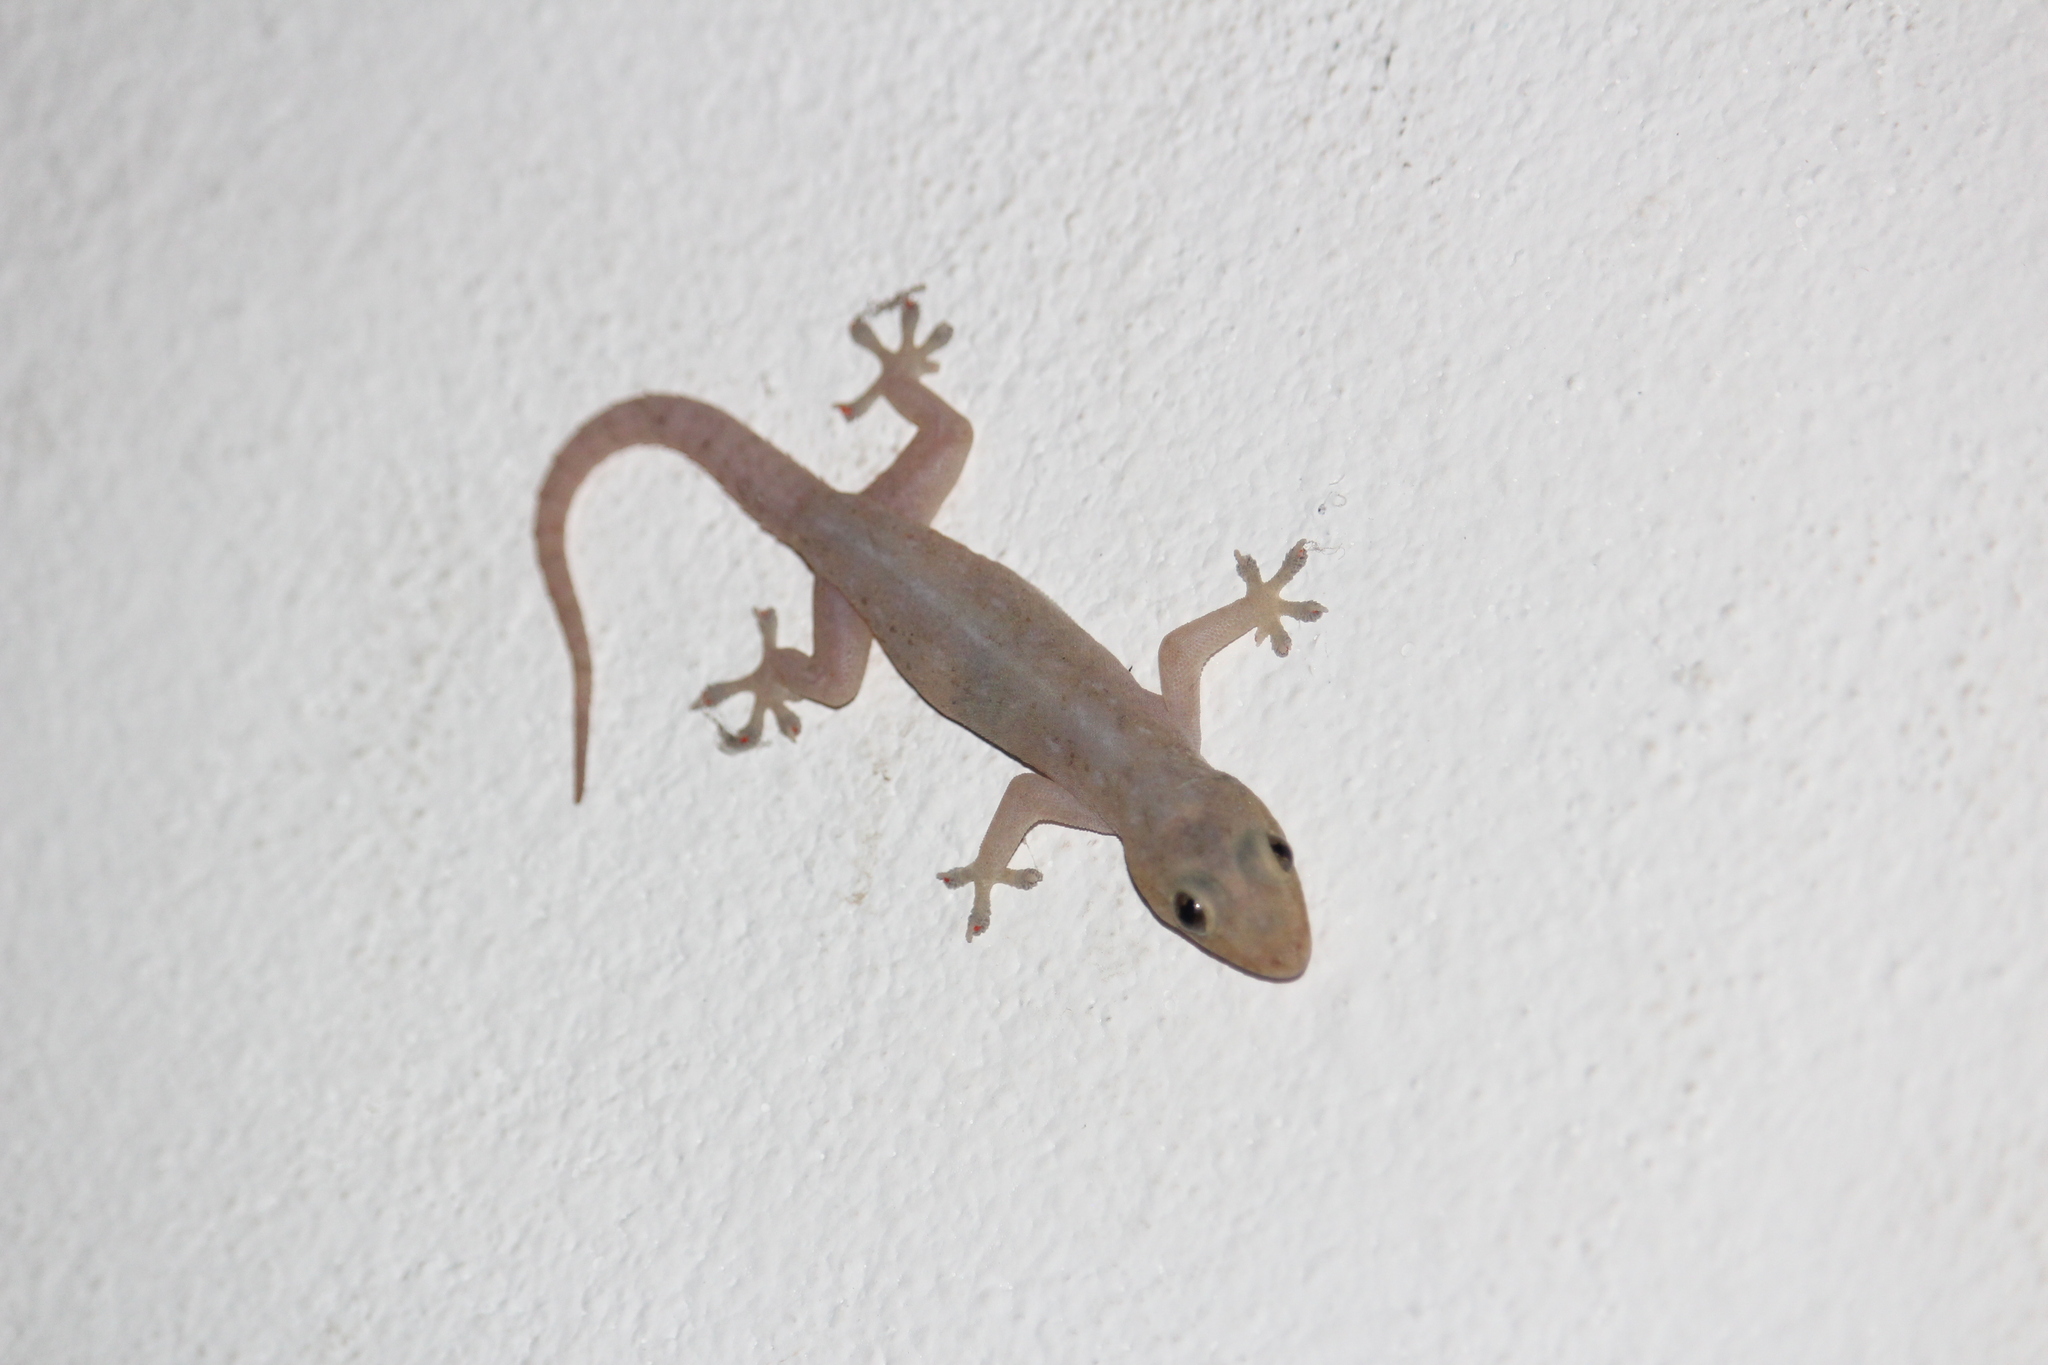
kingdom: Animalia
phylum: Chordata
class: Squamata
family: Gekkonidae
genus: Hemidactylus
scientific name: Hemidactylus frenatus
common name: Common house gecko
